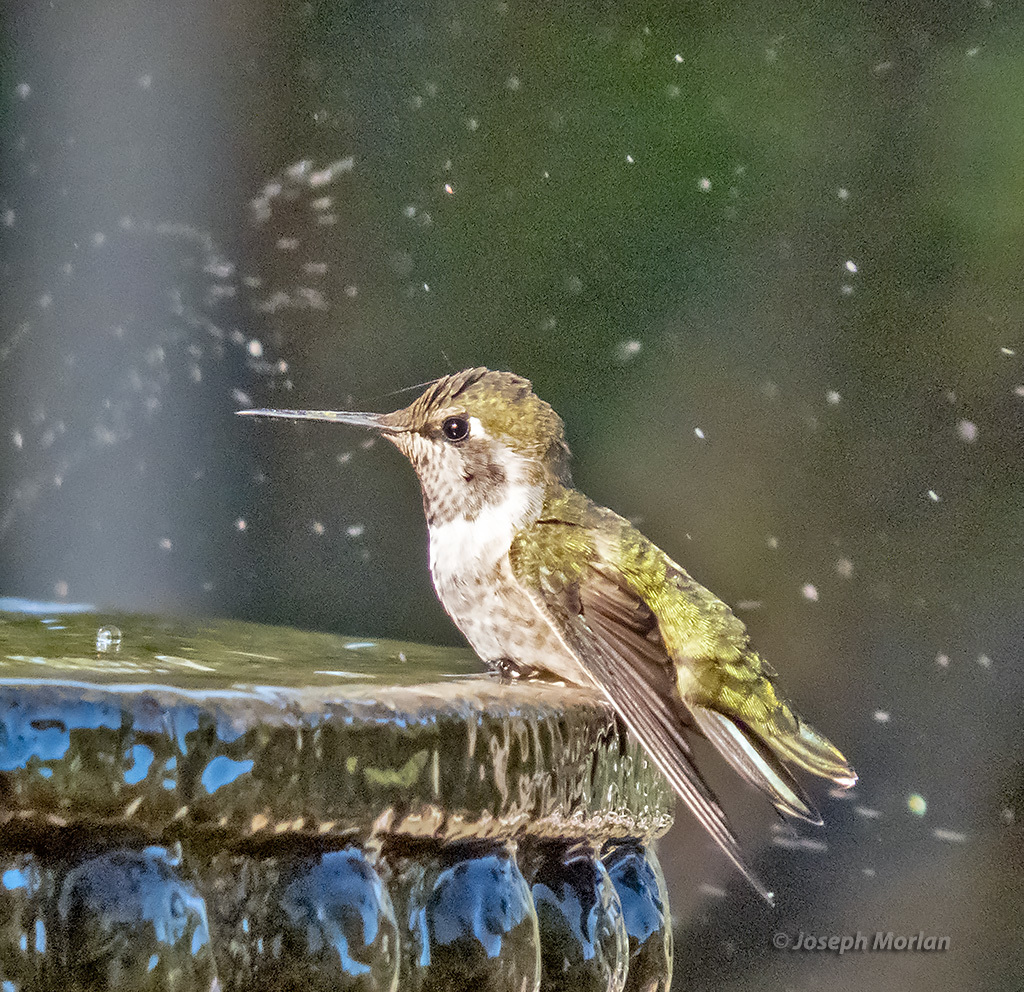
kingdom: Animalia
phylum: Chordata
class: Aves
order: Apodiformes
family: Trochilidae
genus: Calypte
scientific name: Calypte anna
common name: Anna's hummingbird
